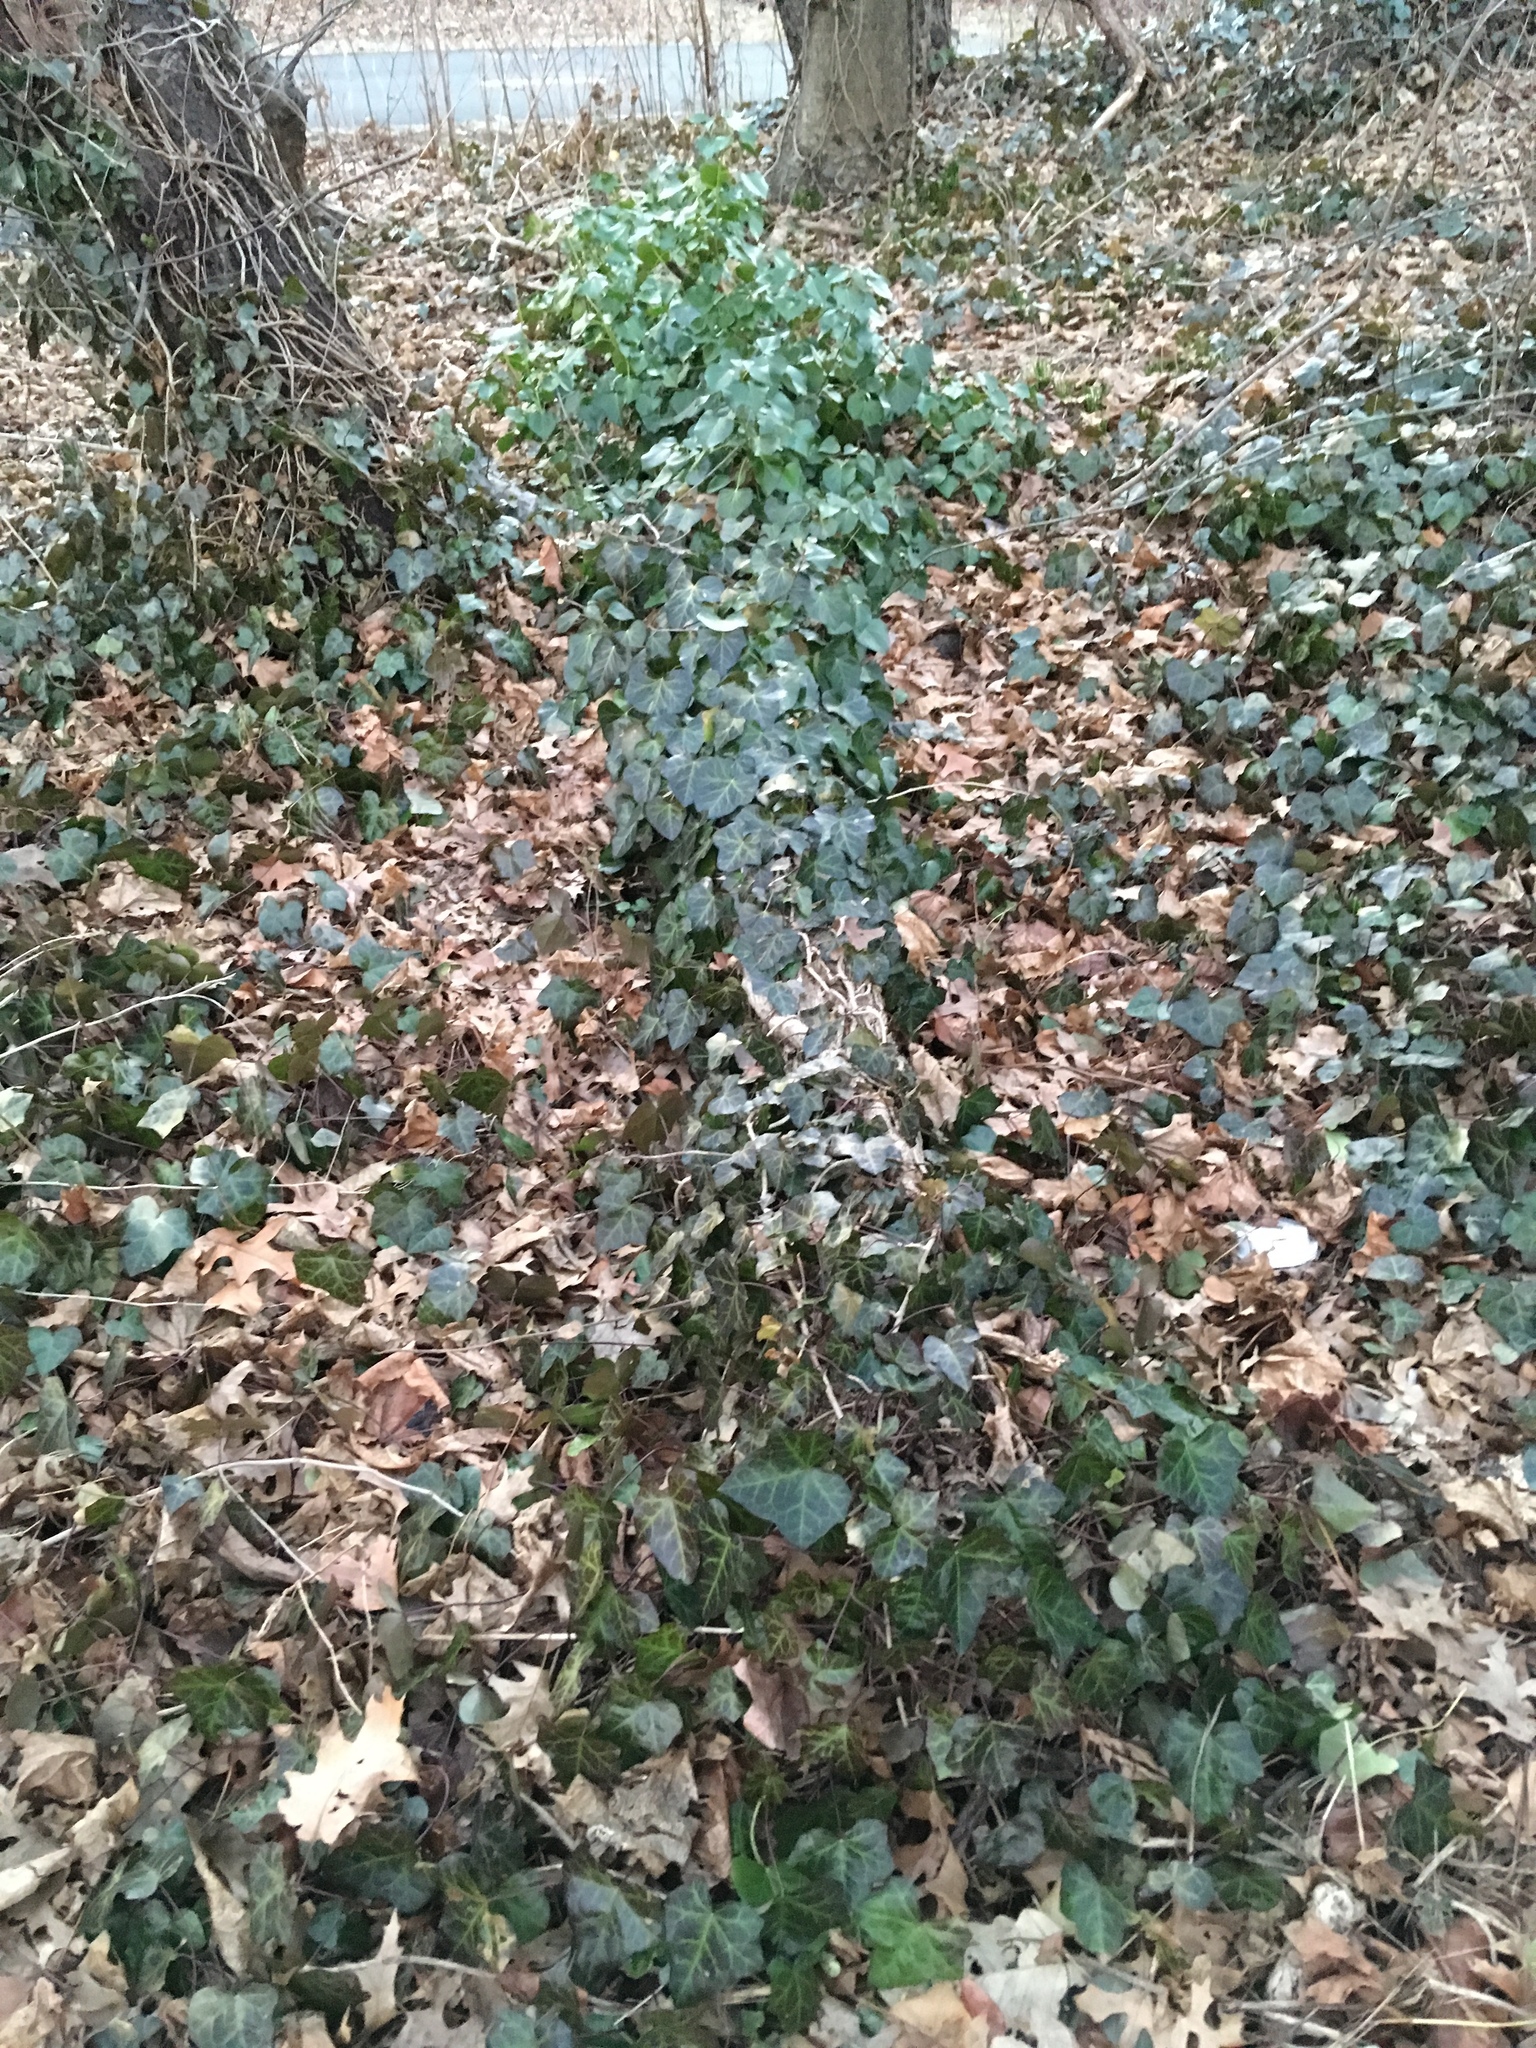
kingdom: Plantae
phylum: Tracheophyta
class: Magnoliopsida
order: Apiales
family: Araliaceae
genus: Hedera
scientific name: Hedera helix
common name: Ivy
